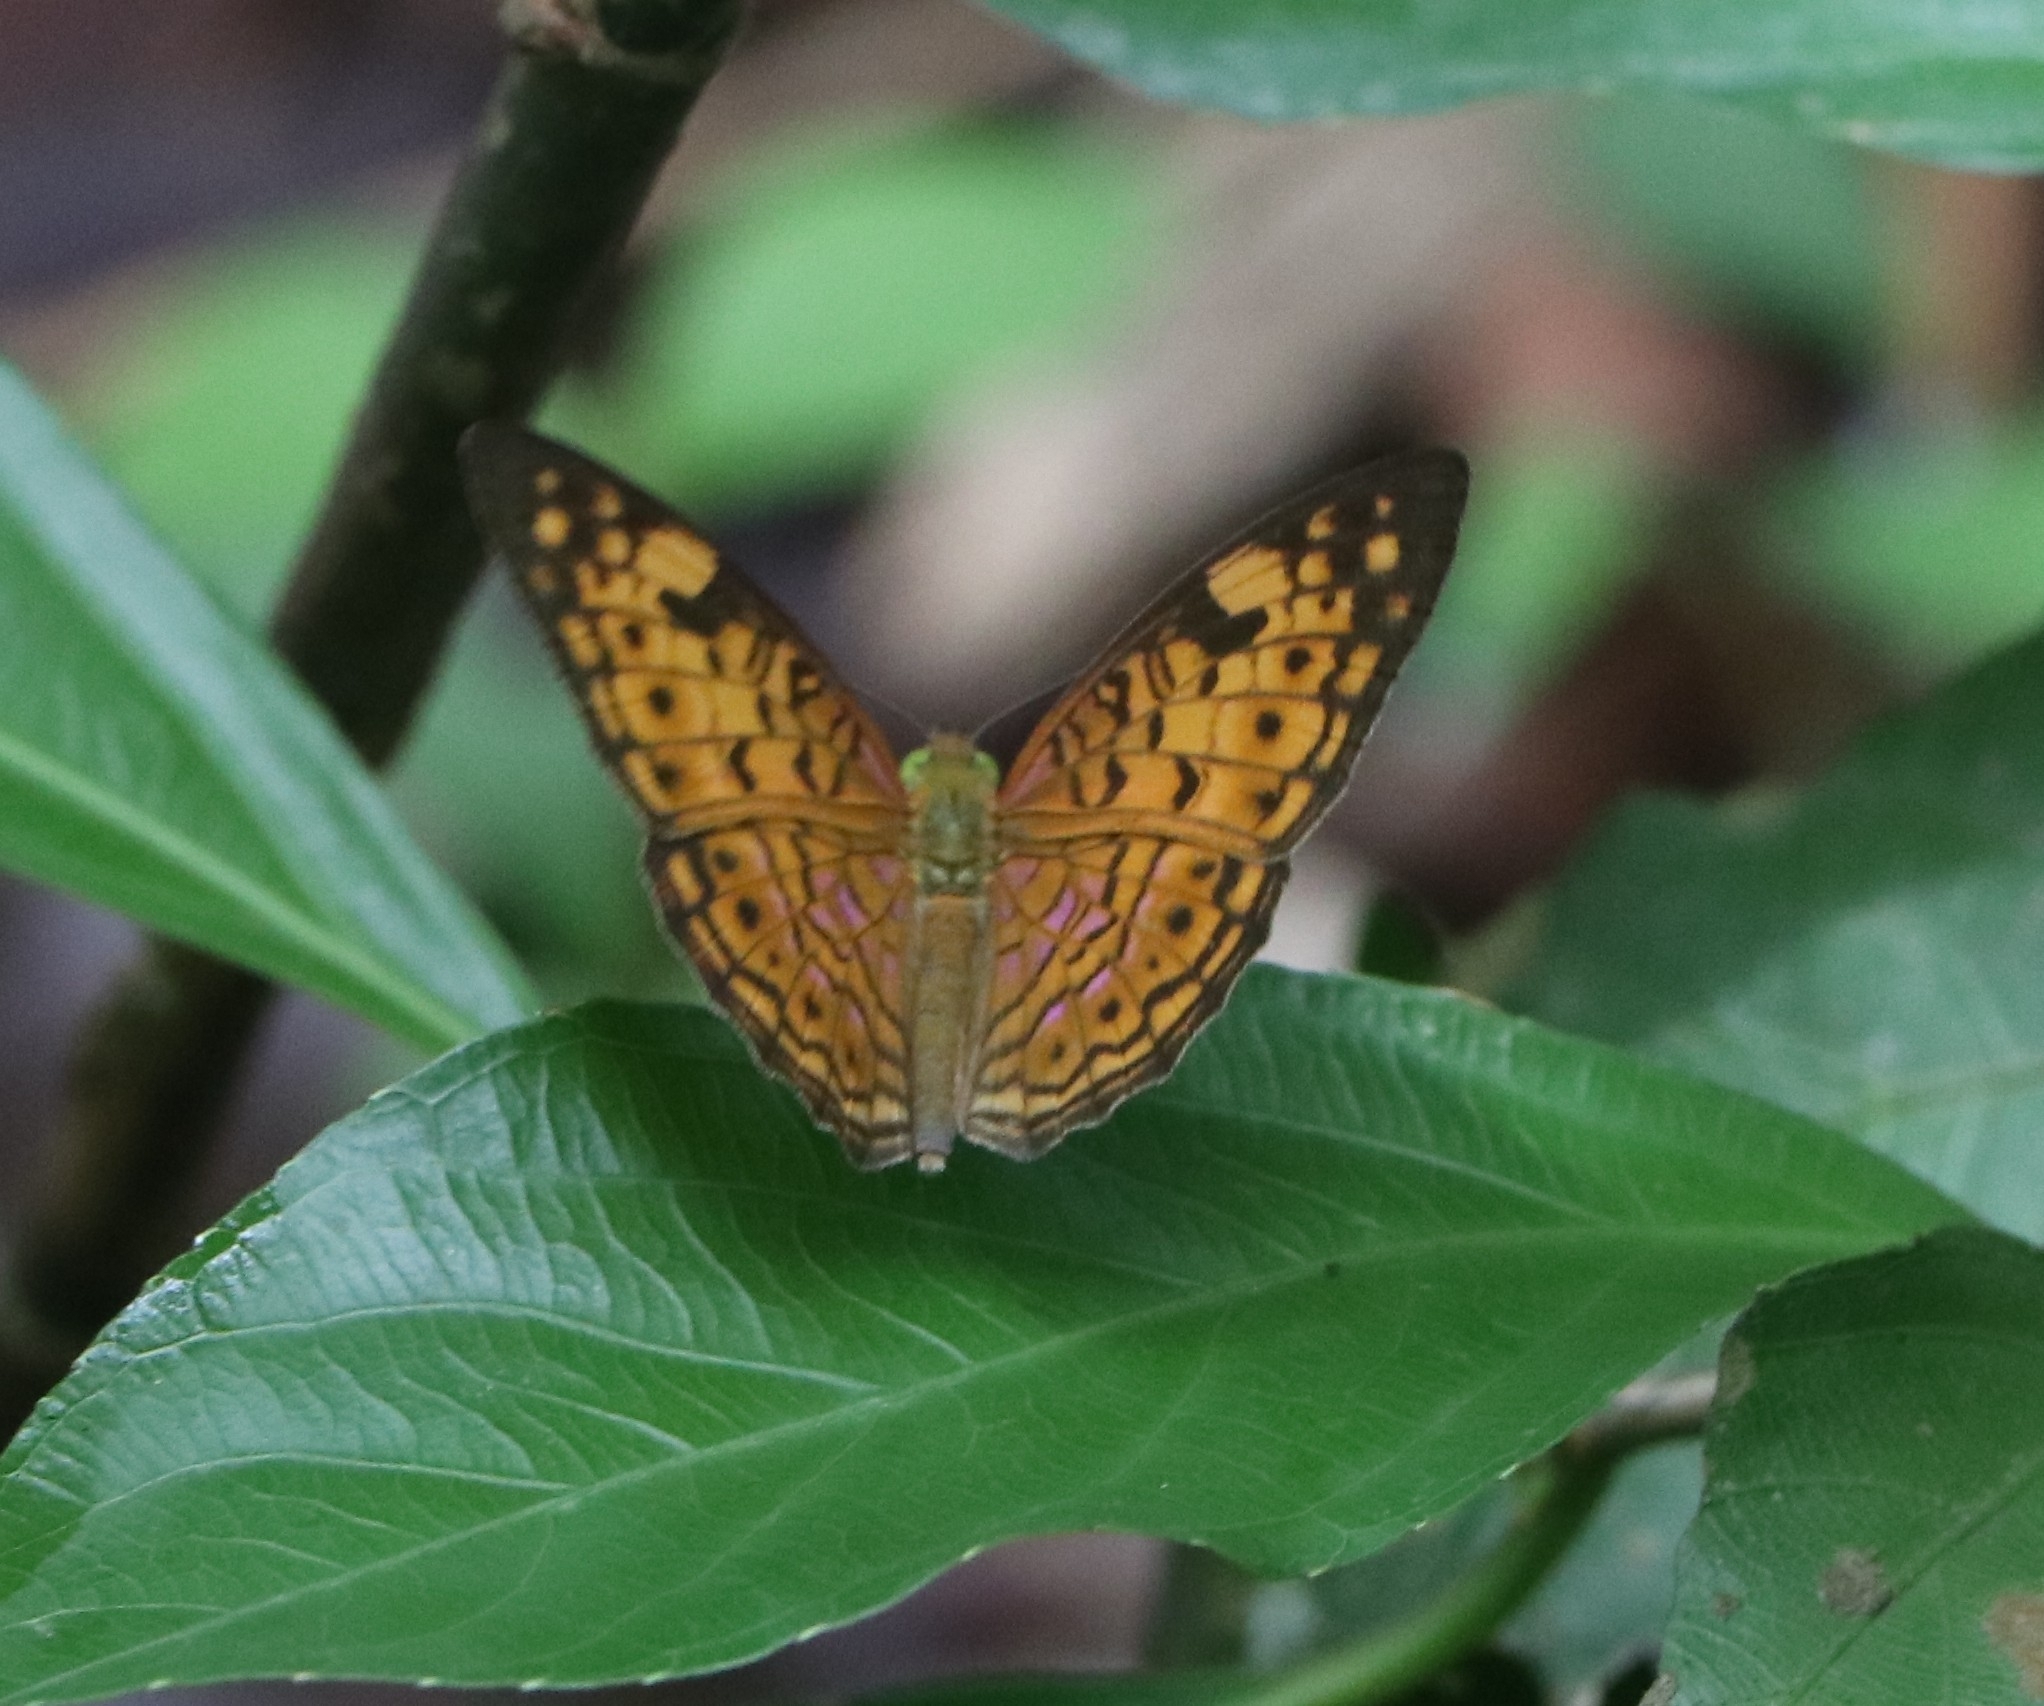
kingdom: Animalia
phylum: Arthropoda
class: Insecta
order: Lepidoptera
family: Nymphalidae
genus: Phalanta
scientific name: Phalanta alcippe
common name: Small leopard
